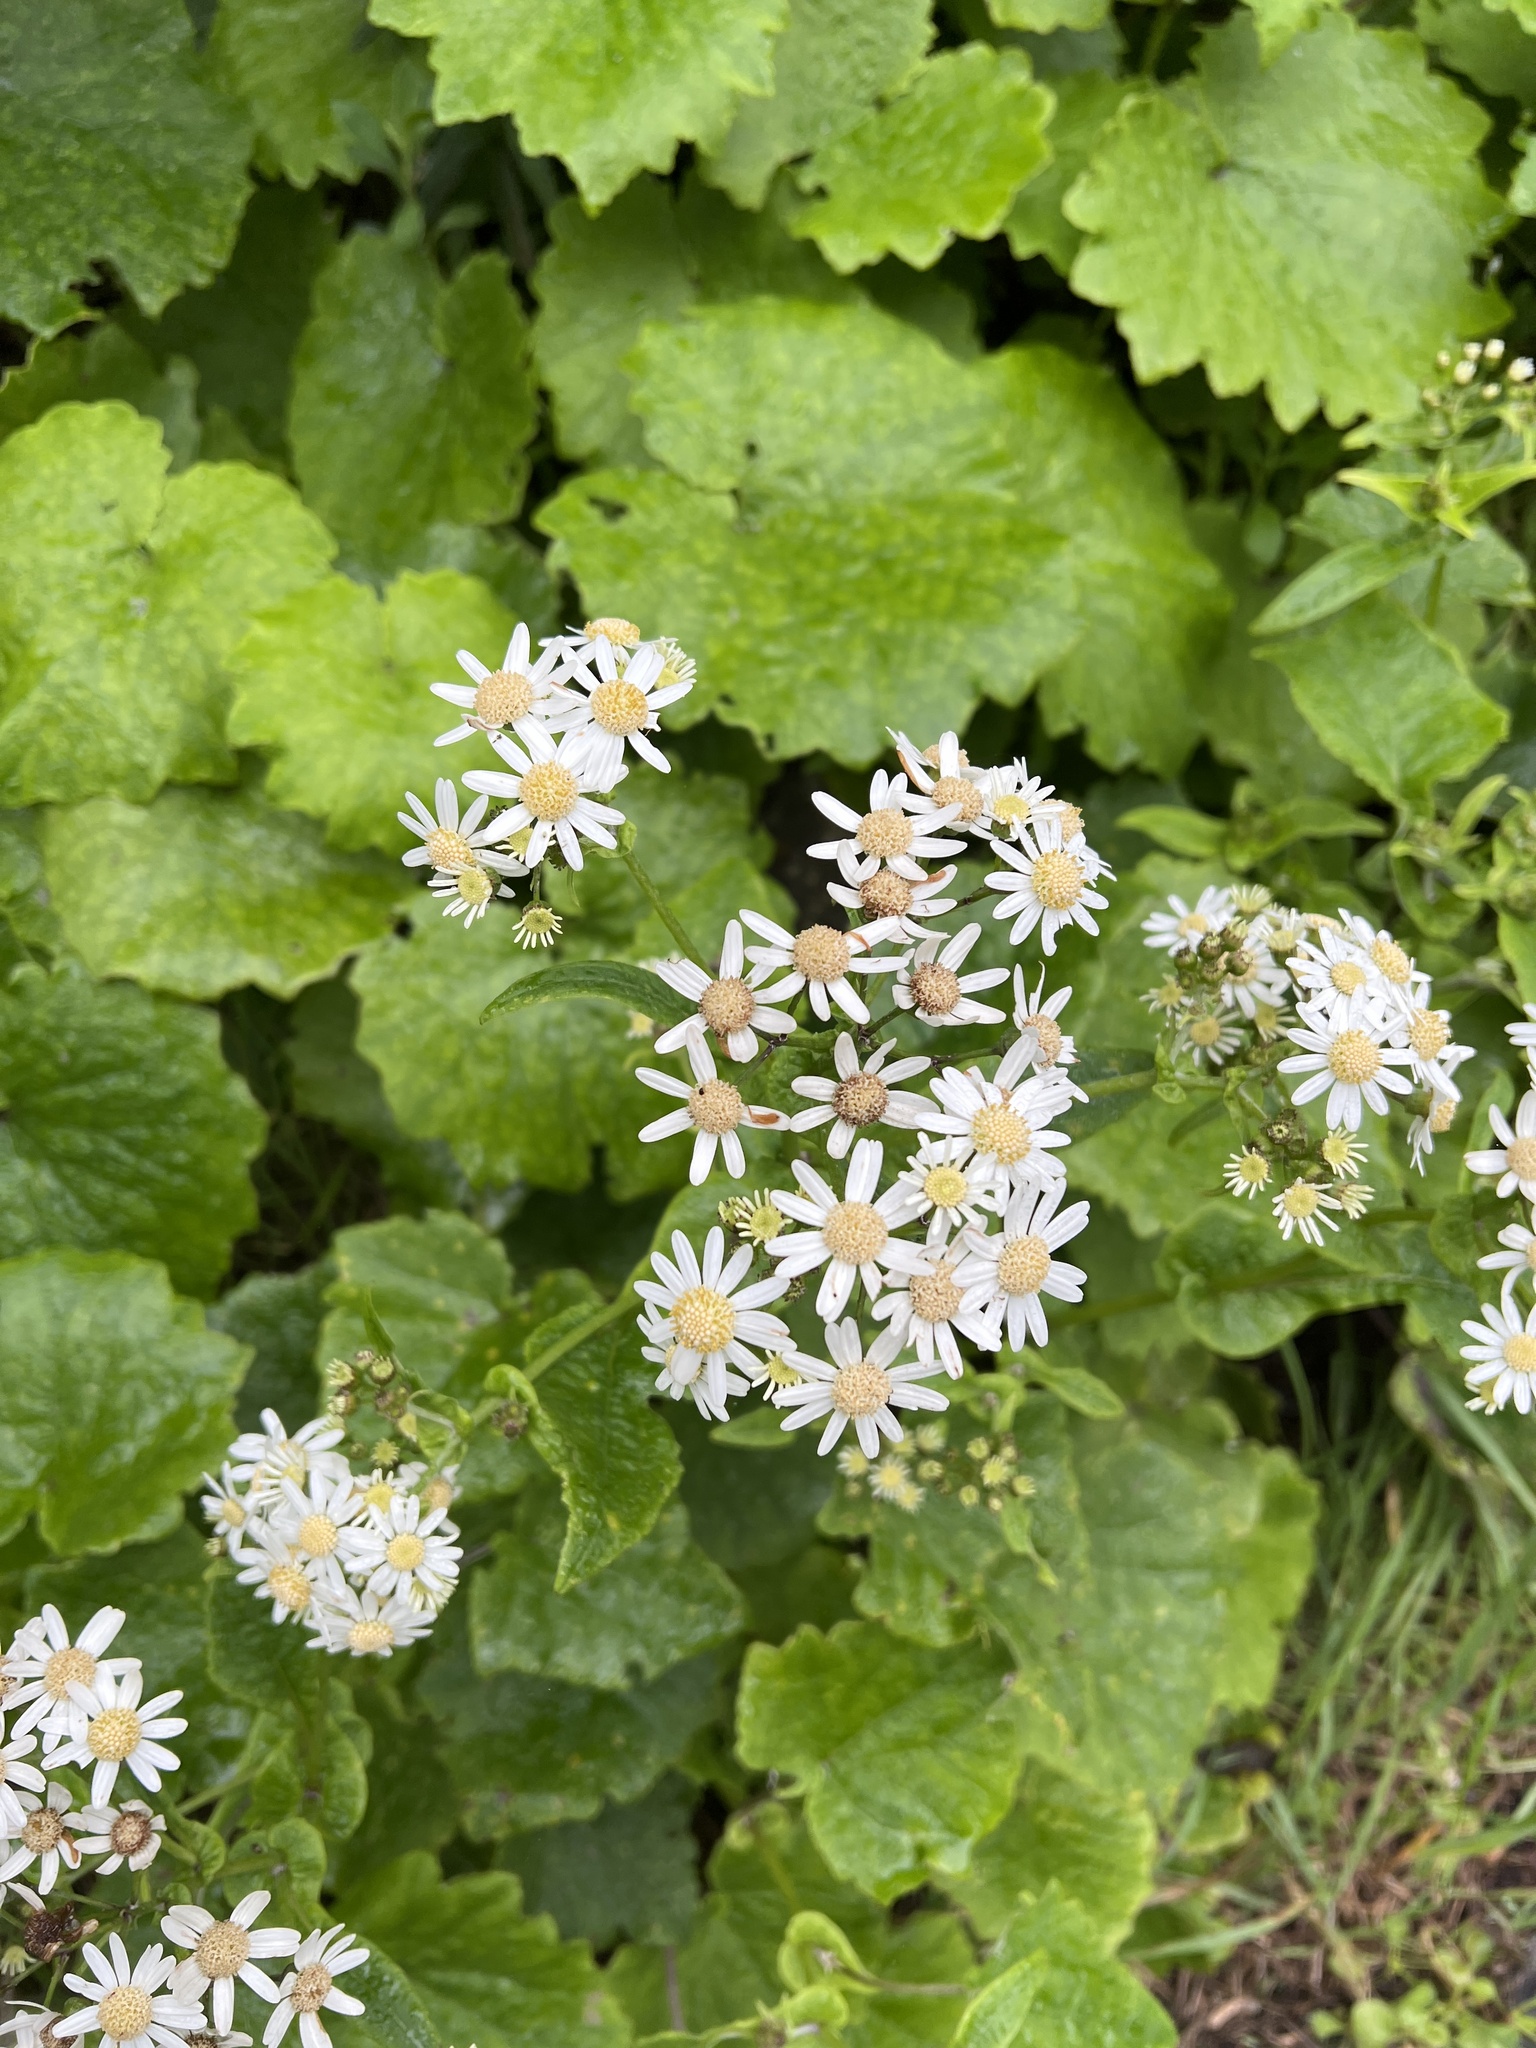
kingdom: Plantae
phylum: Tracheophyta
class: Magnoliopsida
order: Asterales
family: Asteraceae
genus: Pericallis
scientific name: Pericallis steetzii
